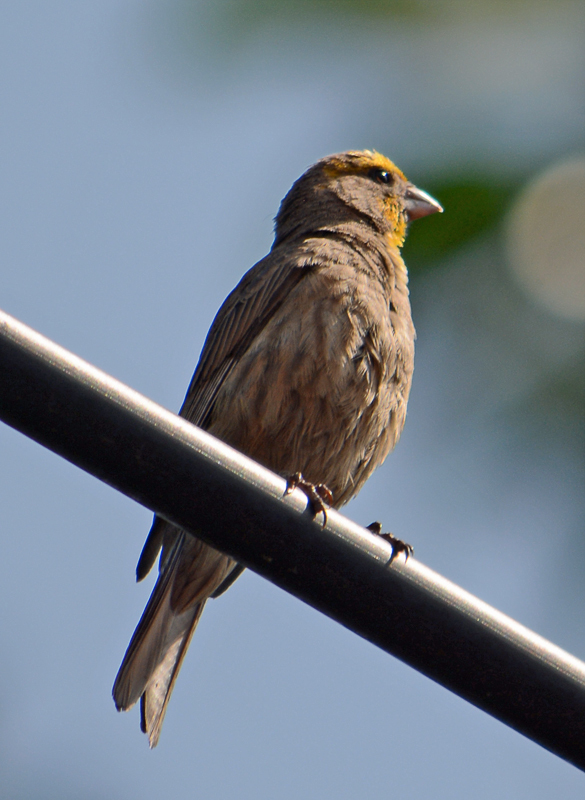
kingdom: Animalia
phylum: Chordata
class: Aves
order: Passeriformes
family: Fringillidae
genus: Haemorhous
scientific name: Haemorhous mexicanus
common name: House finch
